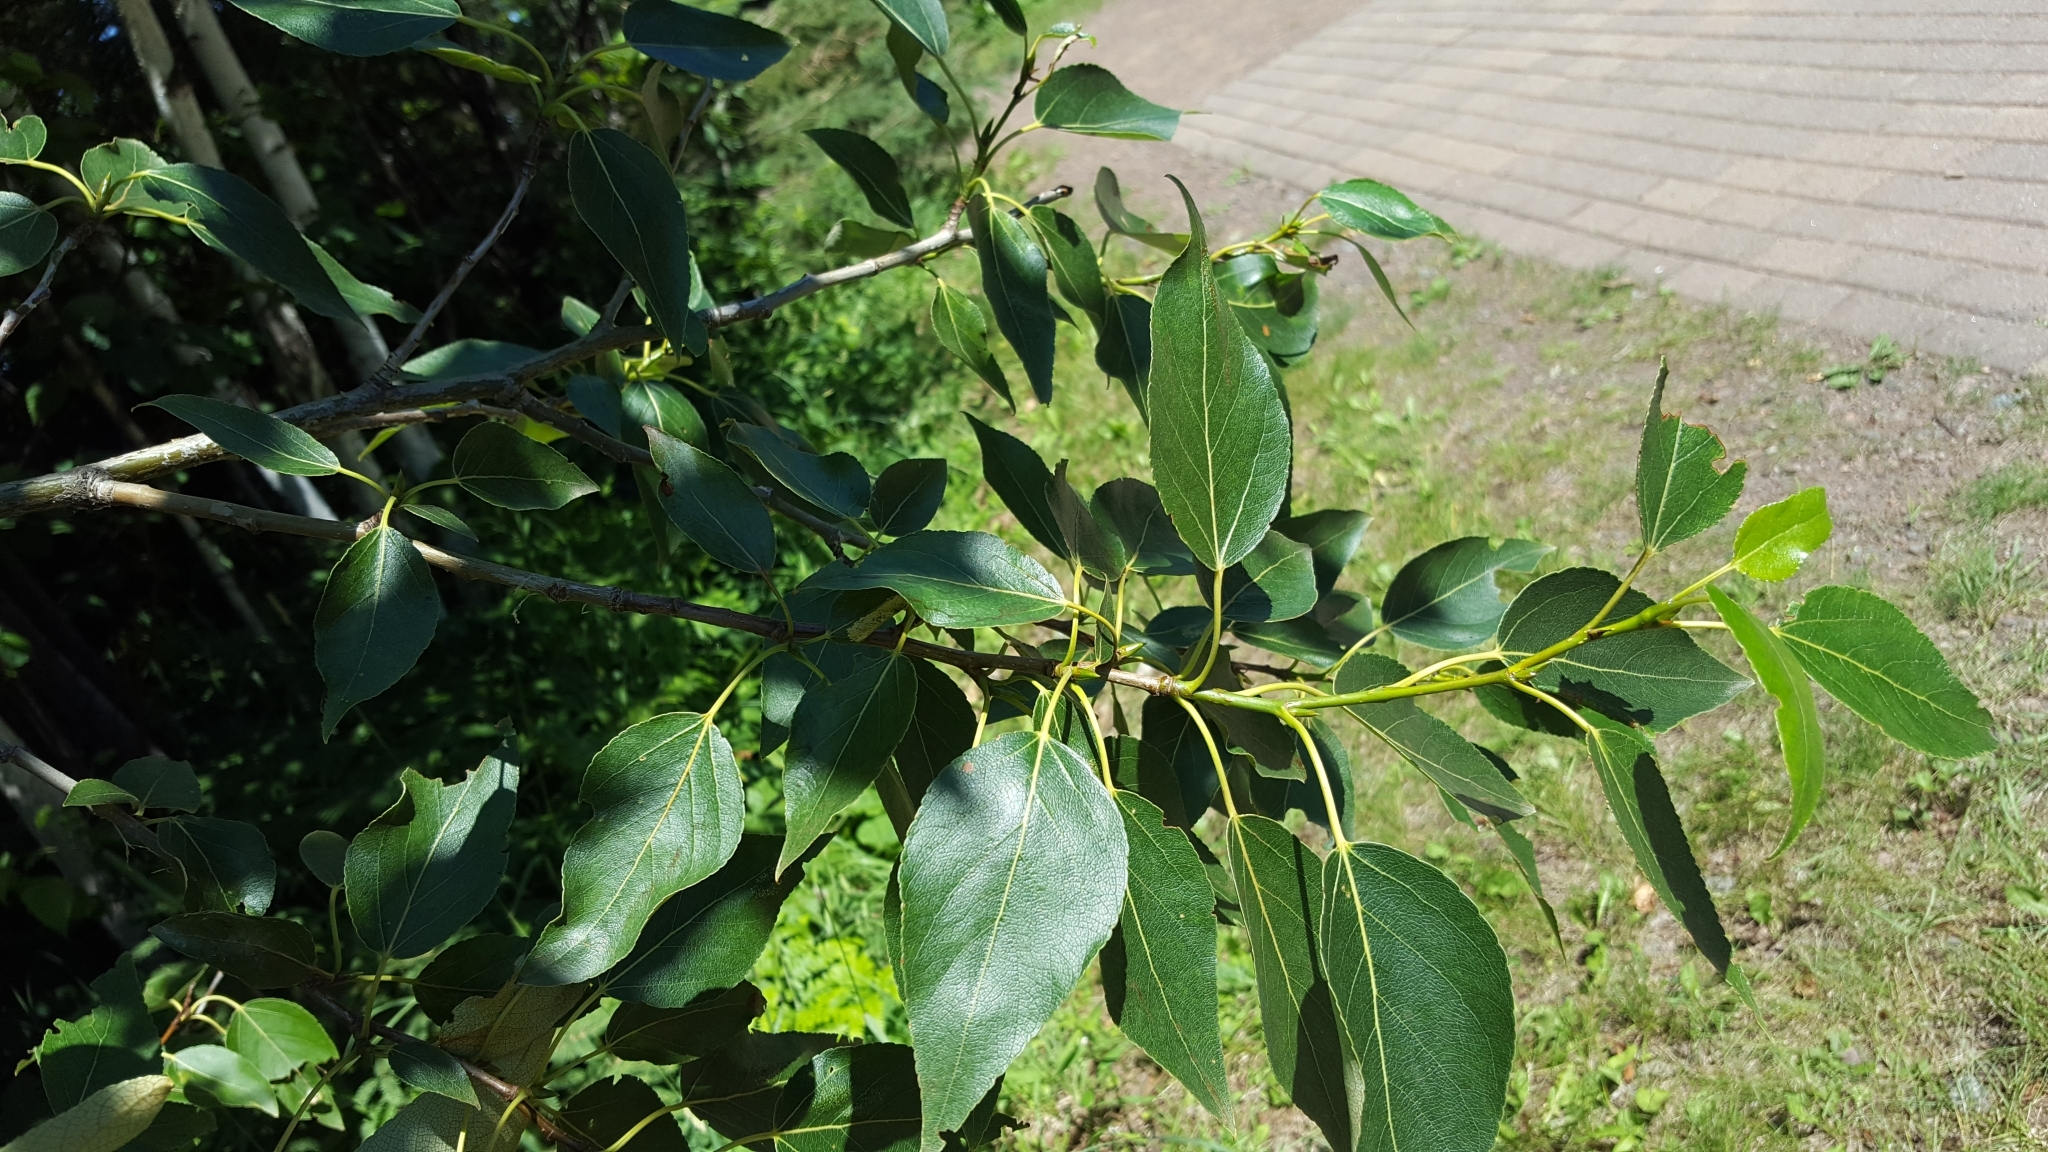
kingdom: Plantae
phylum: Tracheophyta
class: Magnoliopsida
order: Malpighiales
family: Salicaceae
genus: Populus
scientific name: Populus balsamifera
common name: Balsam poplar
